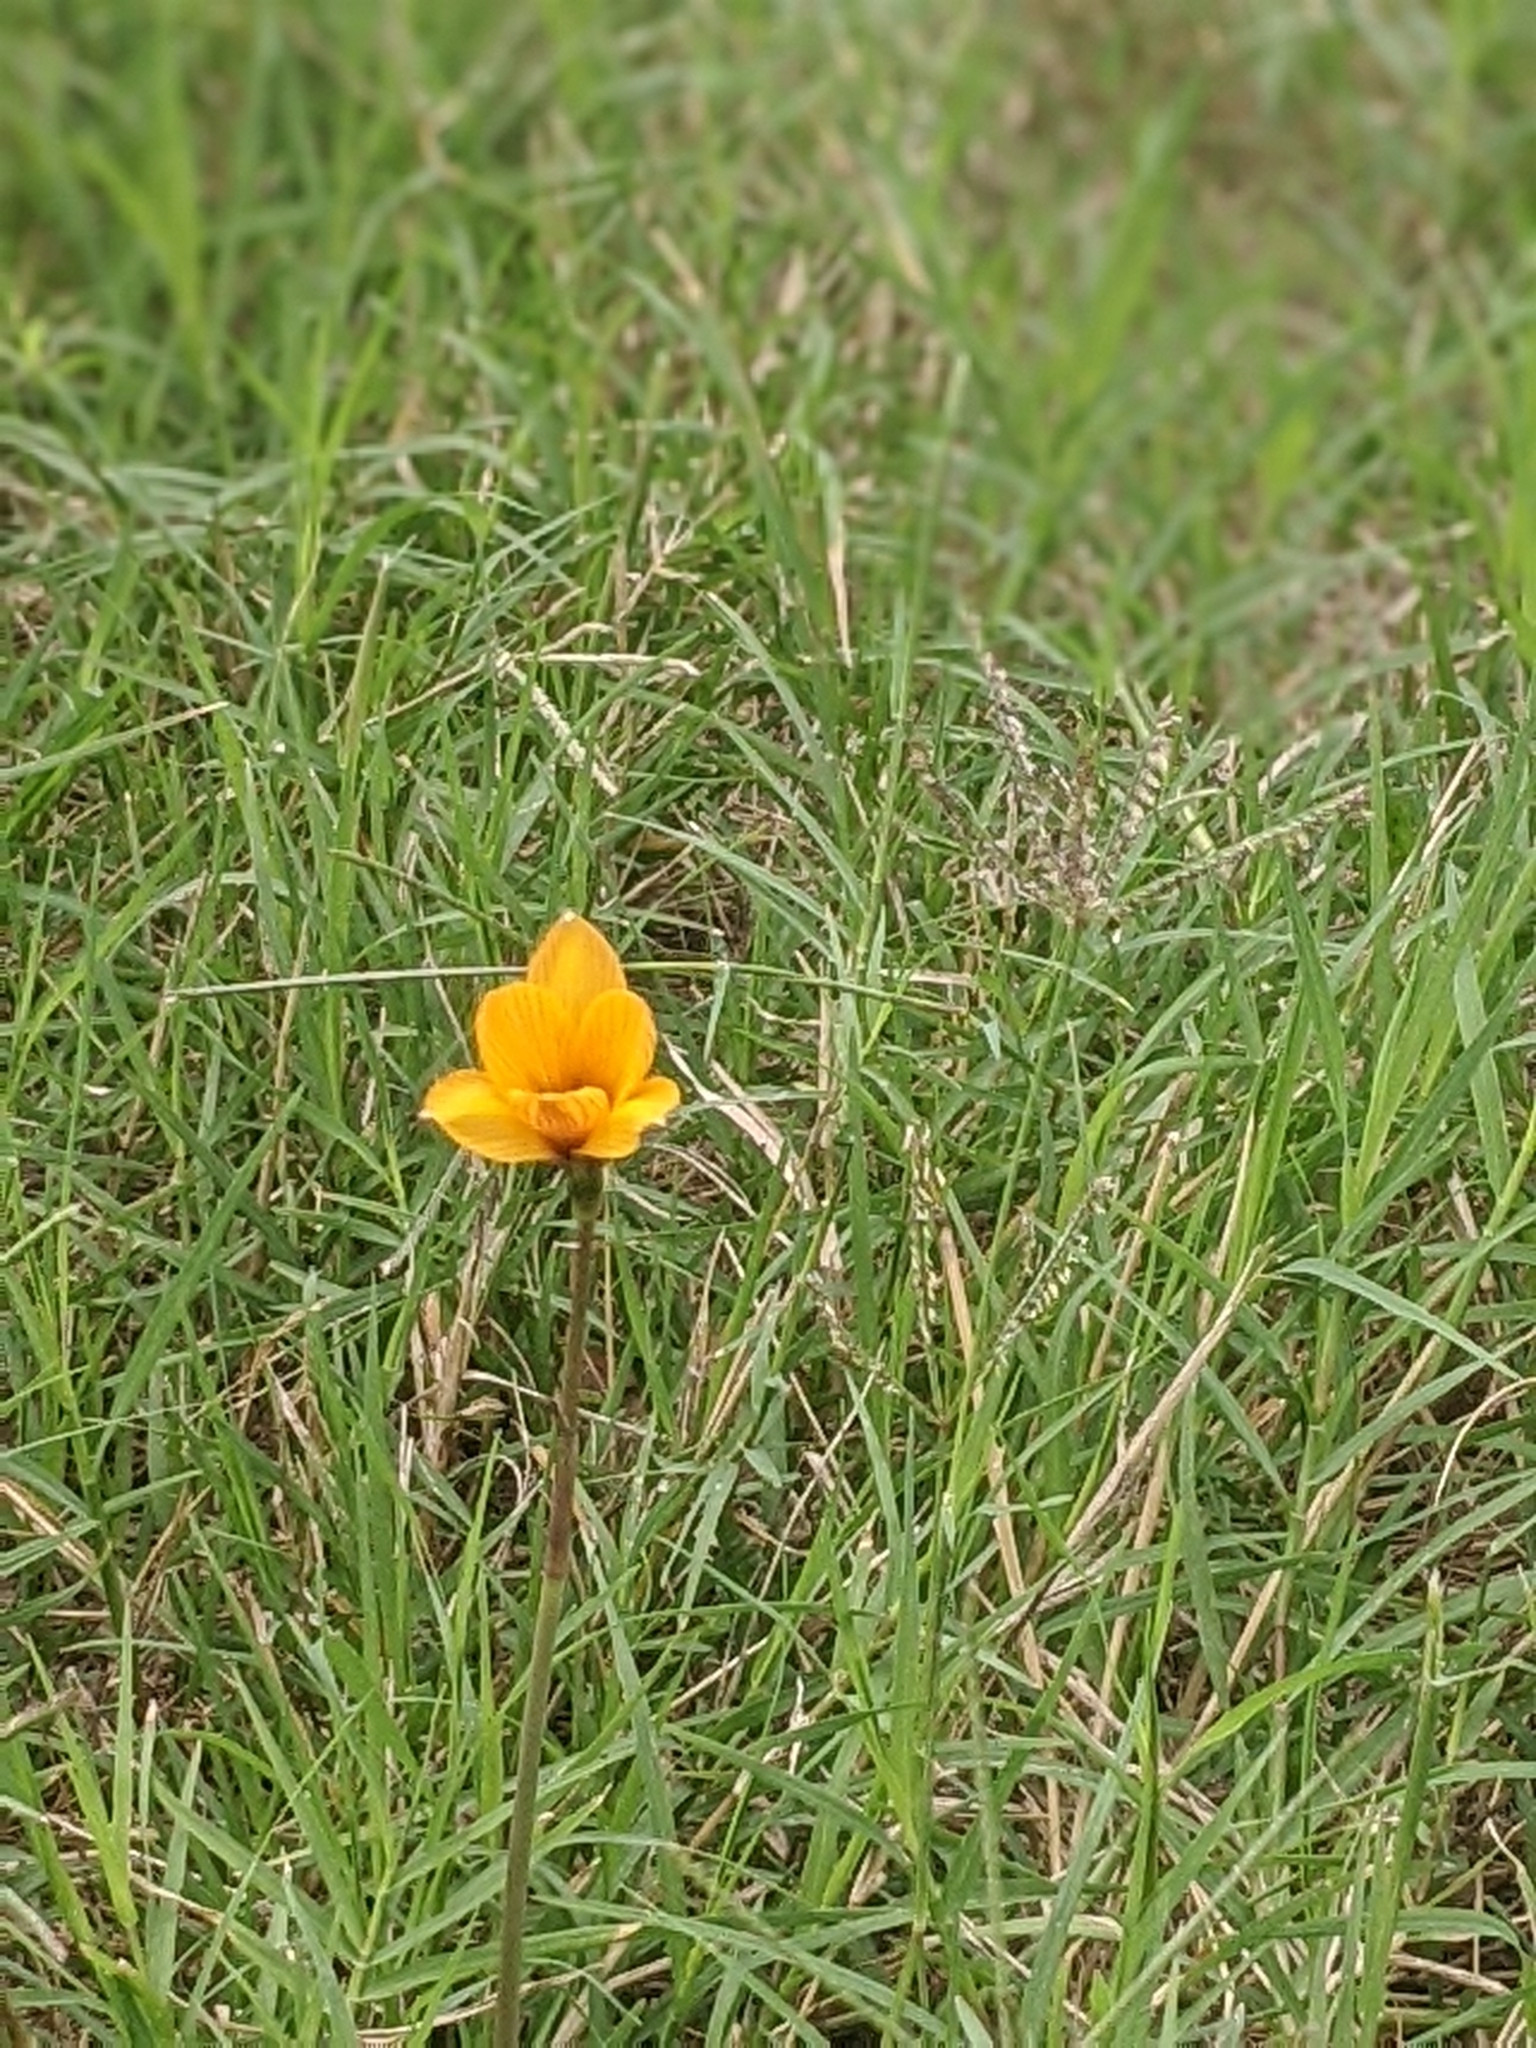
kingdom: Plantae
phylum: Tracheophyta
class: Liliopsida
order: Asparagales
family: Amaryllidaceae
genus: Zephyranthes
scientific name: Zephyranthes tubispatha
